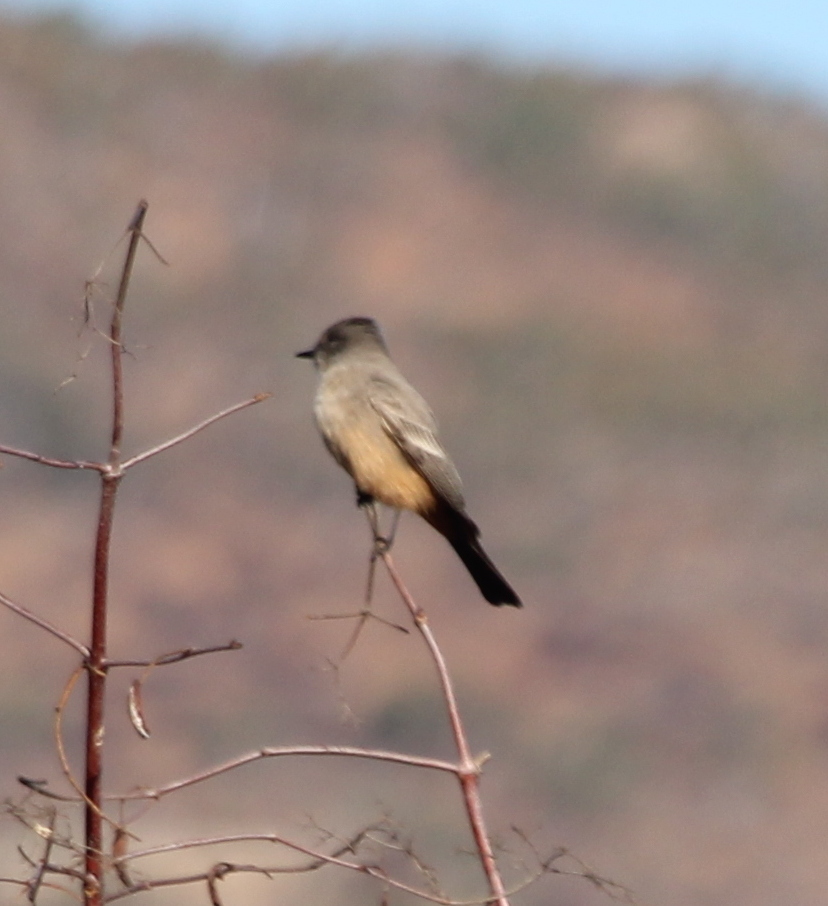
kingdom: Animalia
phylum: Chordata
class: Aves
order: Passeriformes
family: Tyrannidae
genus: Sayornis
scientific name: Sayornis saya
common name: Say's phoebe
